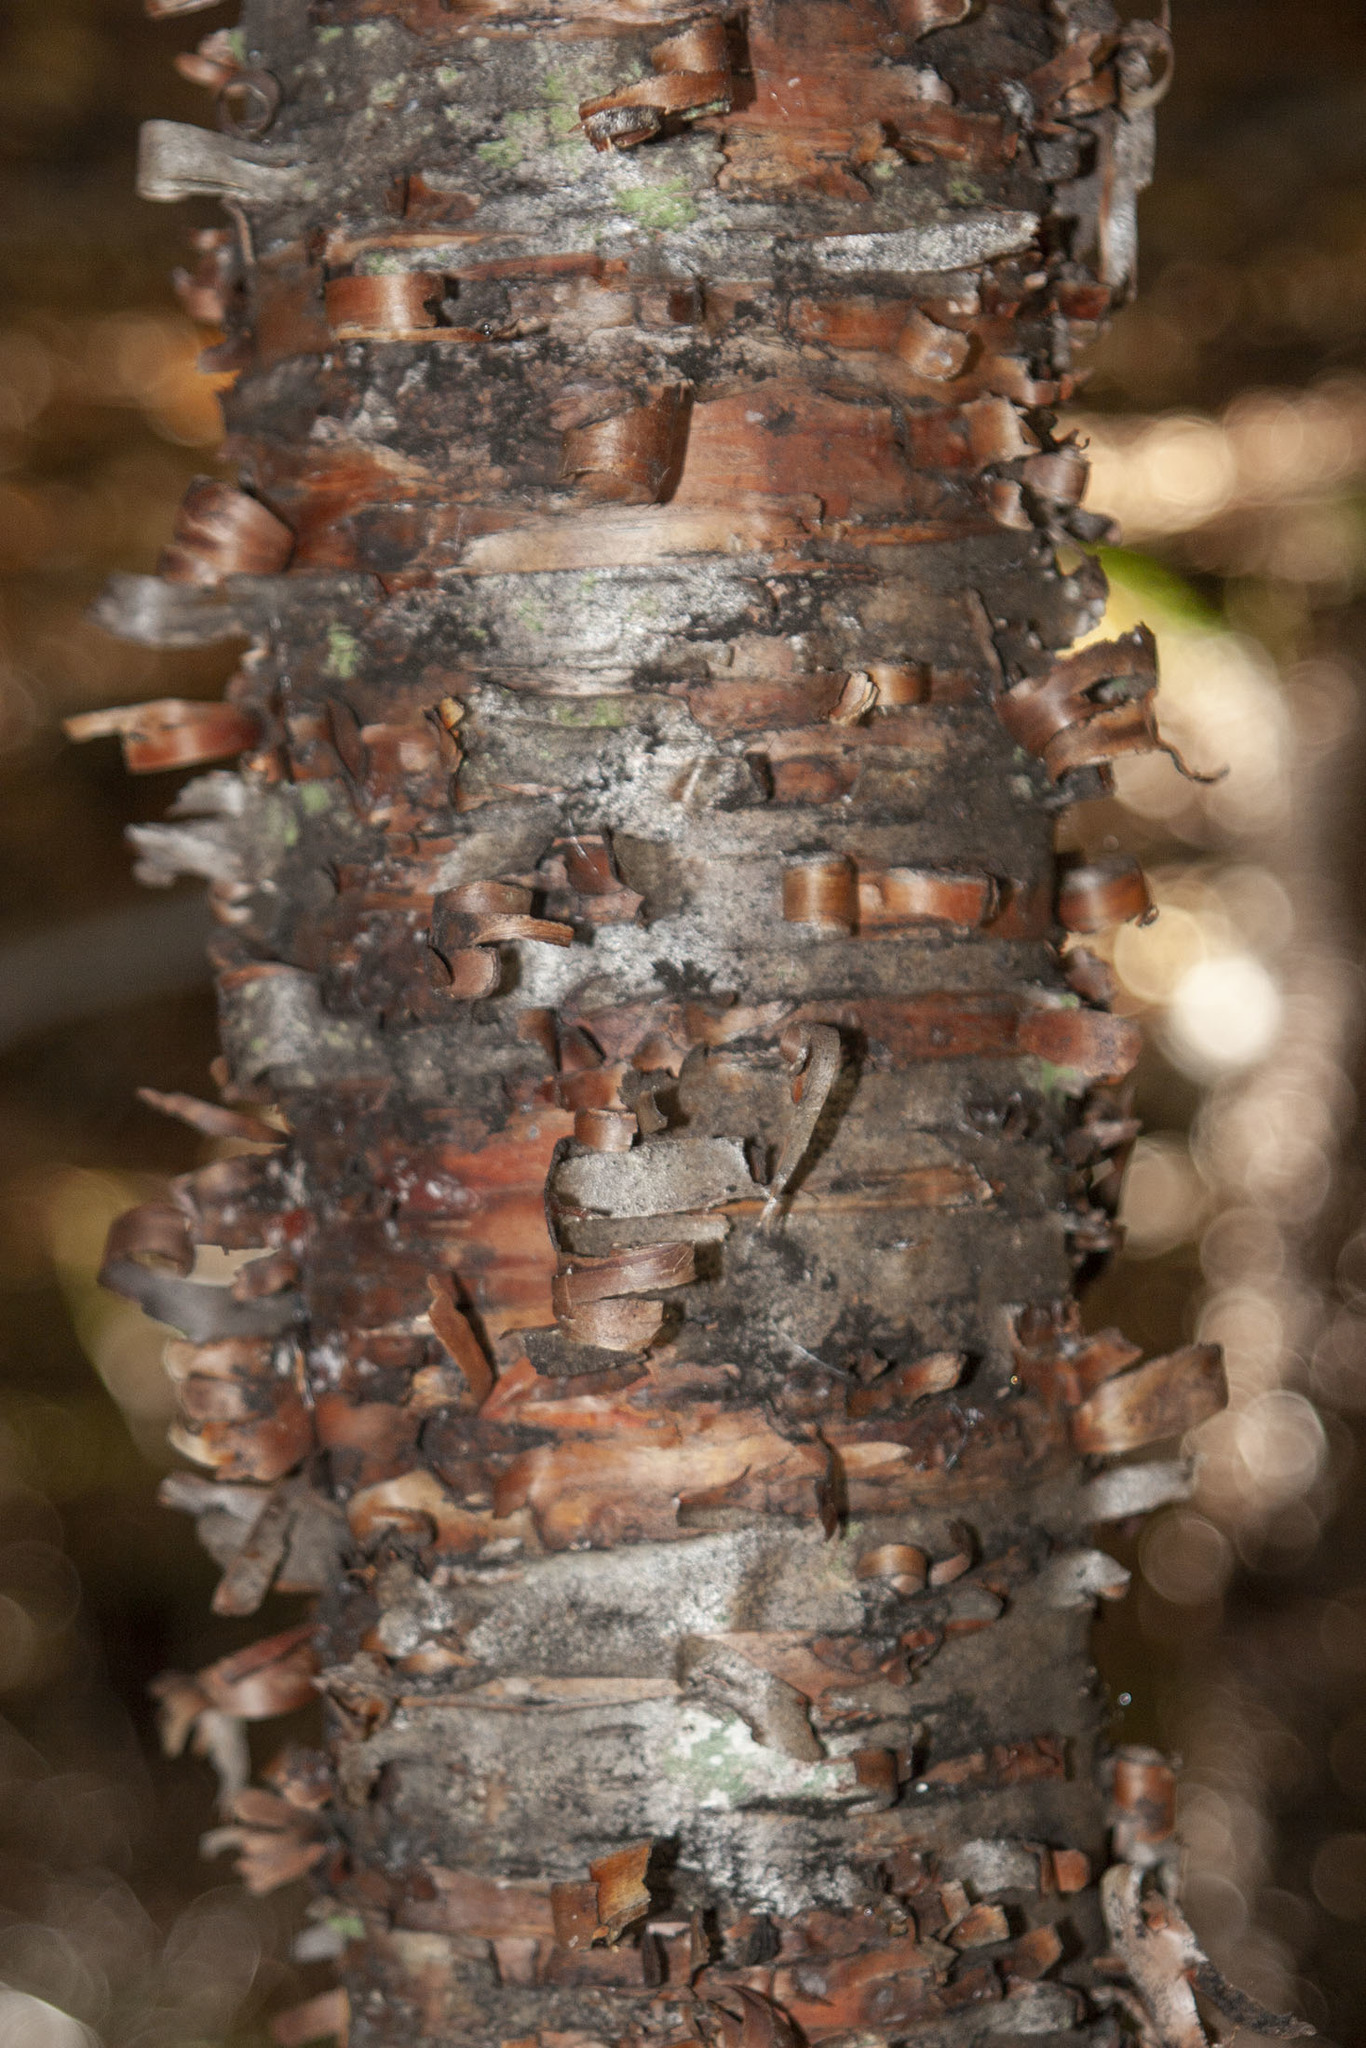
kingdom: Plantae
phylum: Tracheophyta
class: Magnoliopsida
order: Fagales
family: Betulaceae
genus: Betula
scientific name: Betula alleghaniensis
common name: Yellow birch
